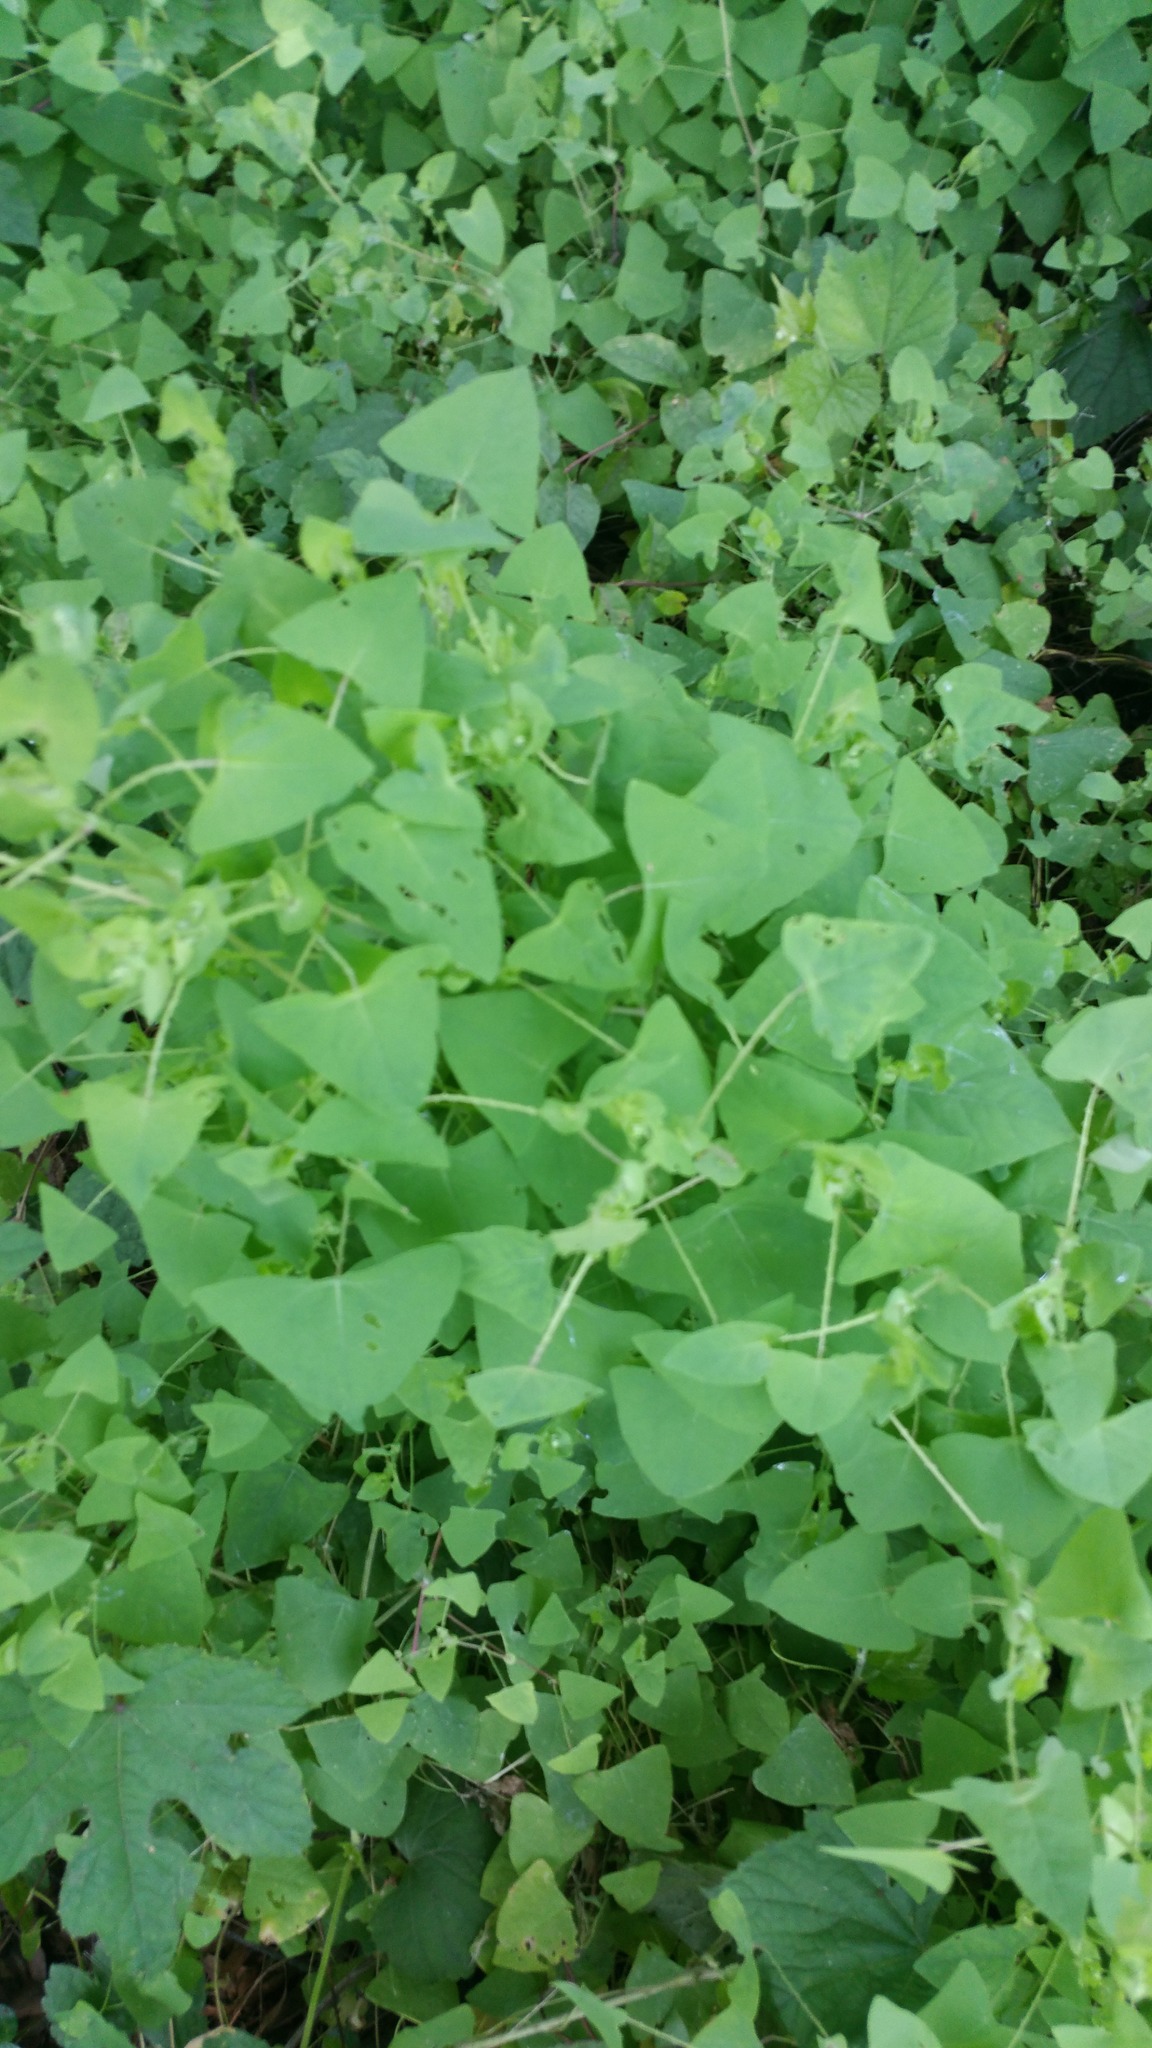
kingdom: Plantae
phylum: Tracheophyta
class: Magnoliopsida
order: Caryophyllales
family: Polygonaceae
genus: Persicaria
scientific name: Persicaria perfoliata
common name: Asiatic tearthumb
